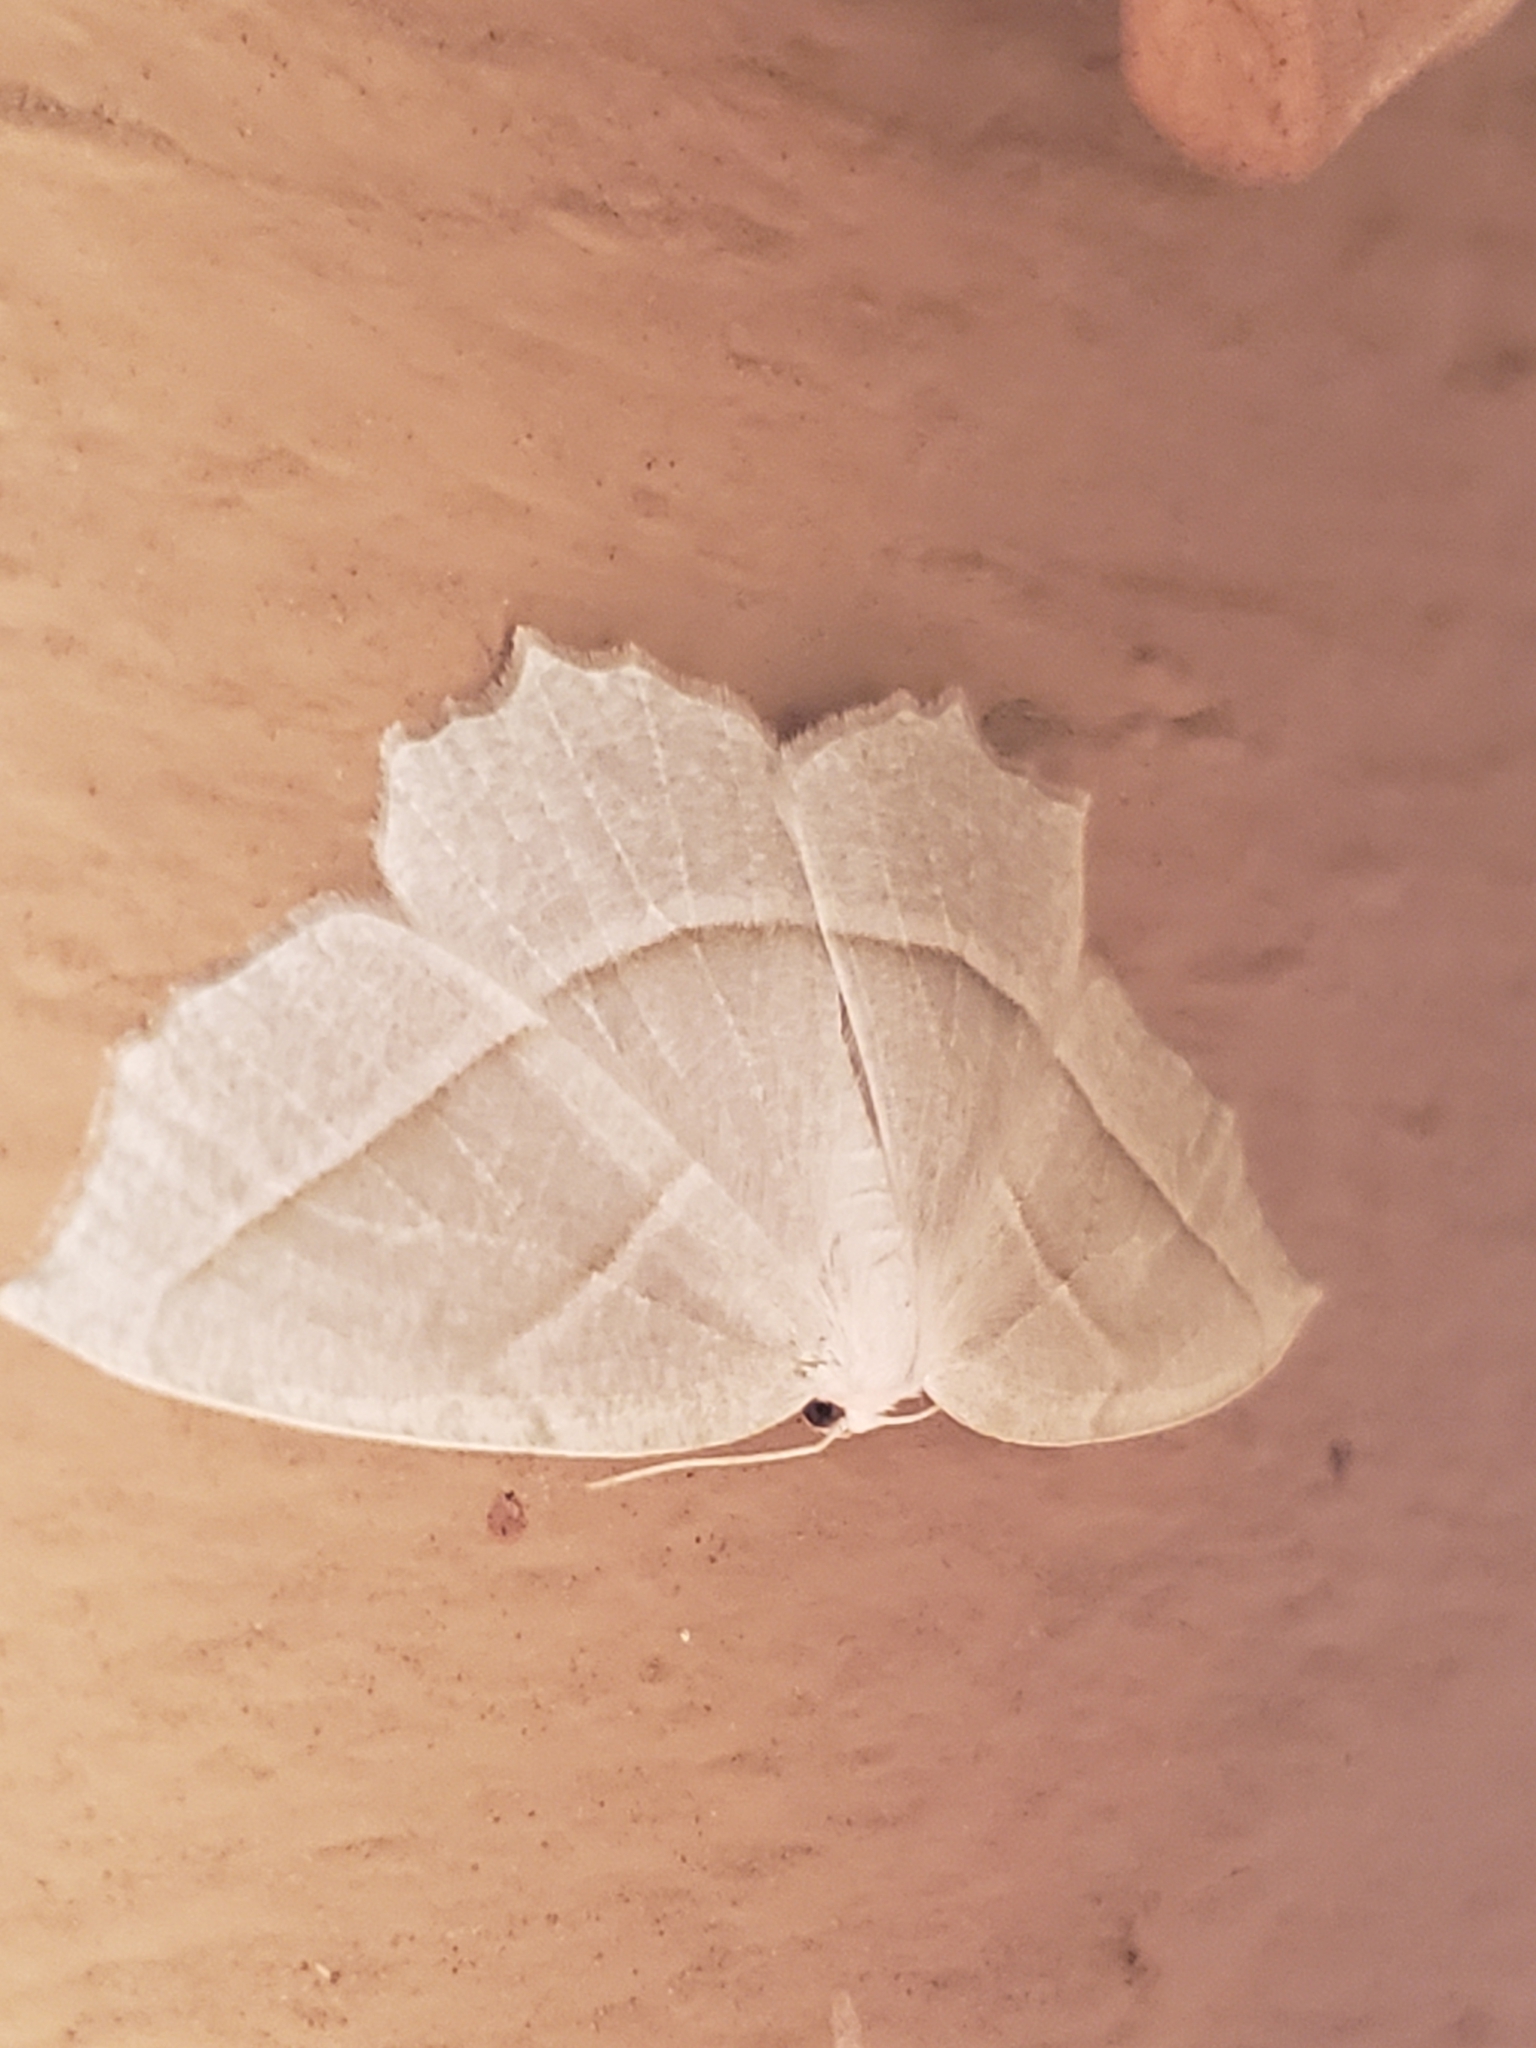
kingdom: Animalia
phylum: Arthropoda
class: Insecta
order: Lepidoptera
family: Geometridae
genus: Campaea
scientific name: Campaea perlata
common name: Fringed looper
